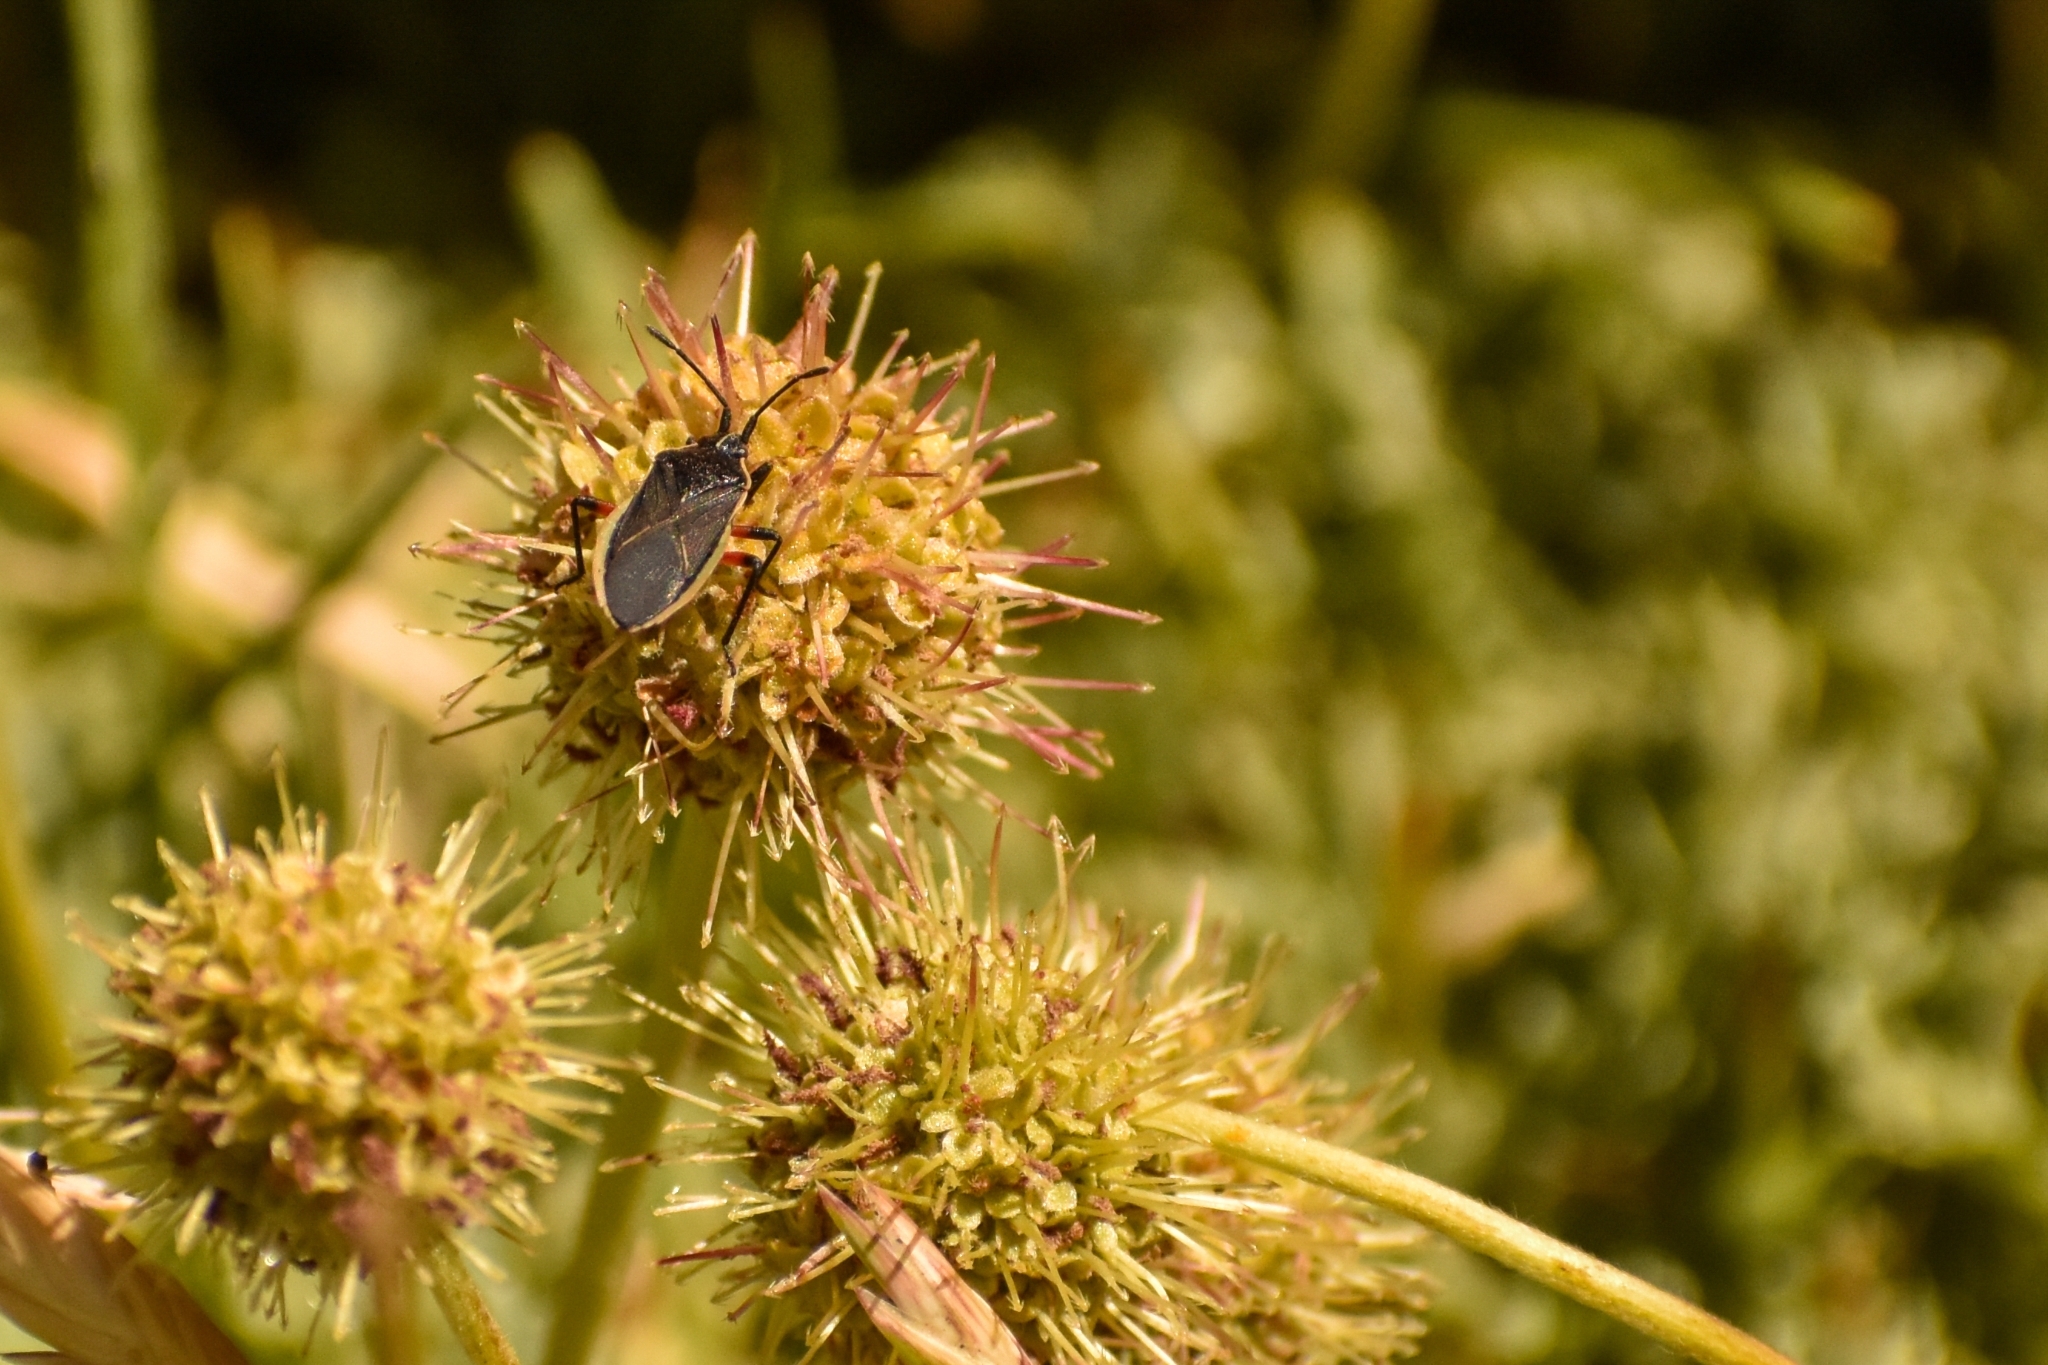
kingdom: Animalia
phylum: Arthropoda
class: Insecta
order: Hemiptera
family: Coreidae
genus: Eldarca
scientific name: Eldarca haematomera
